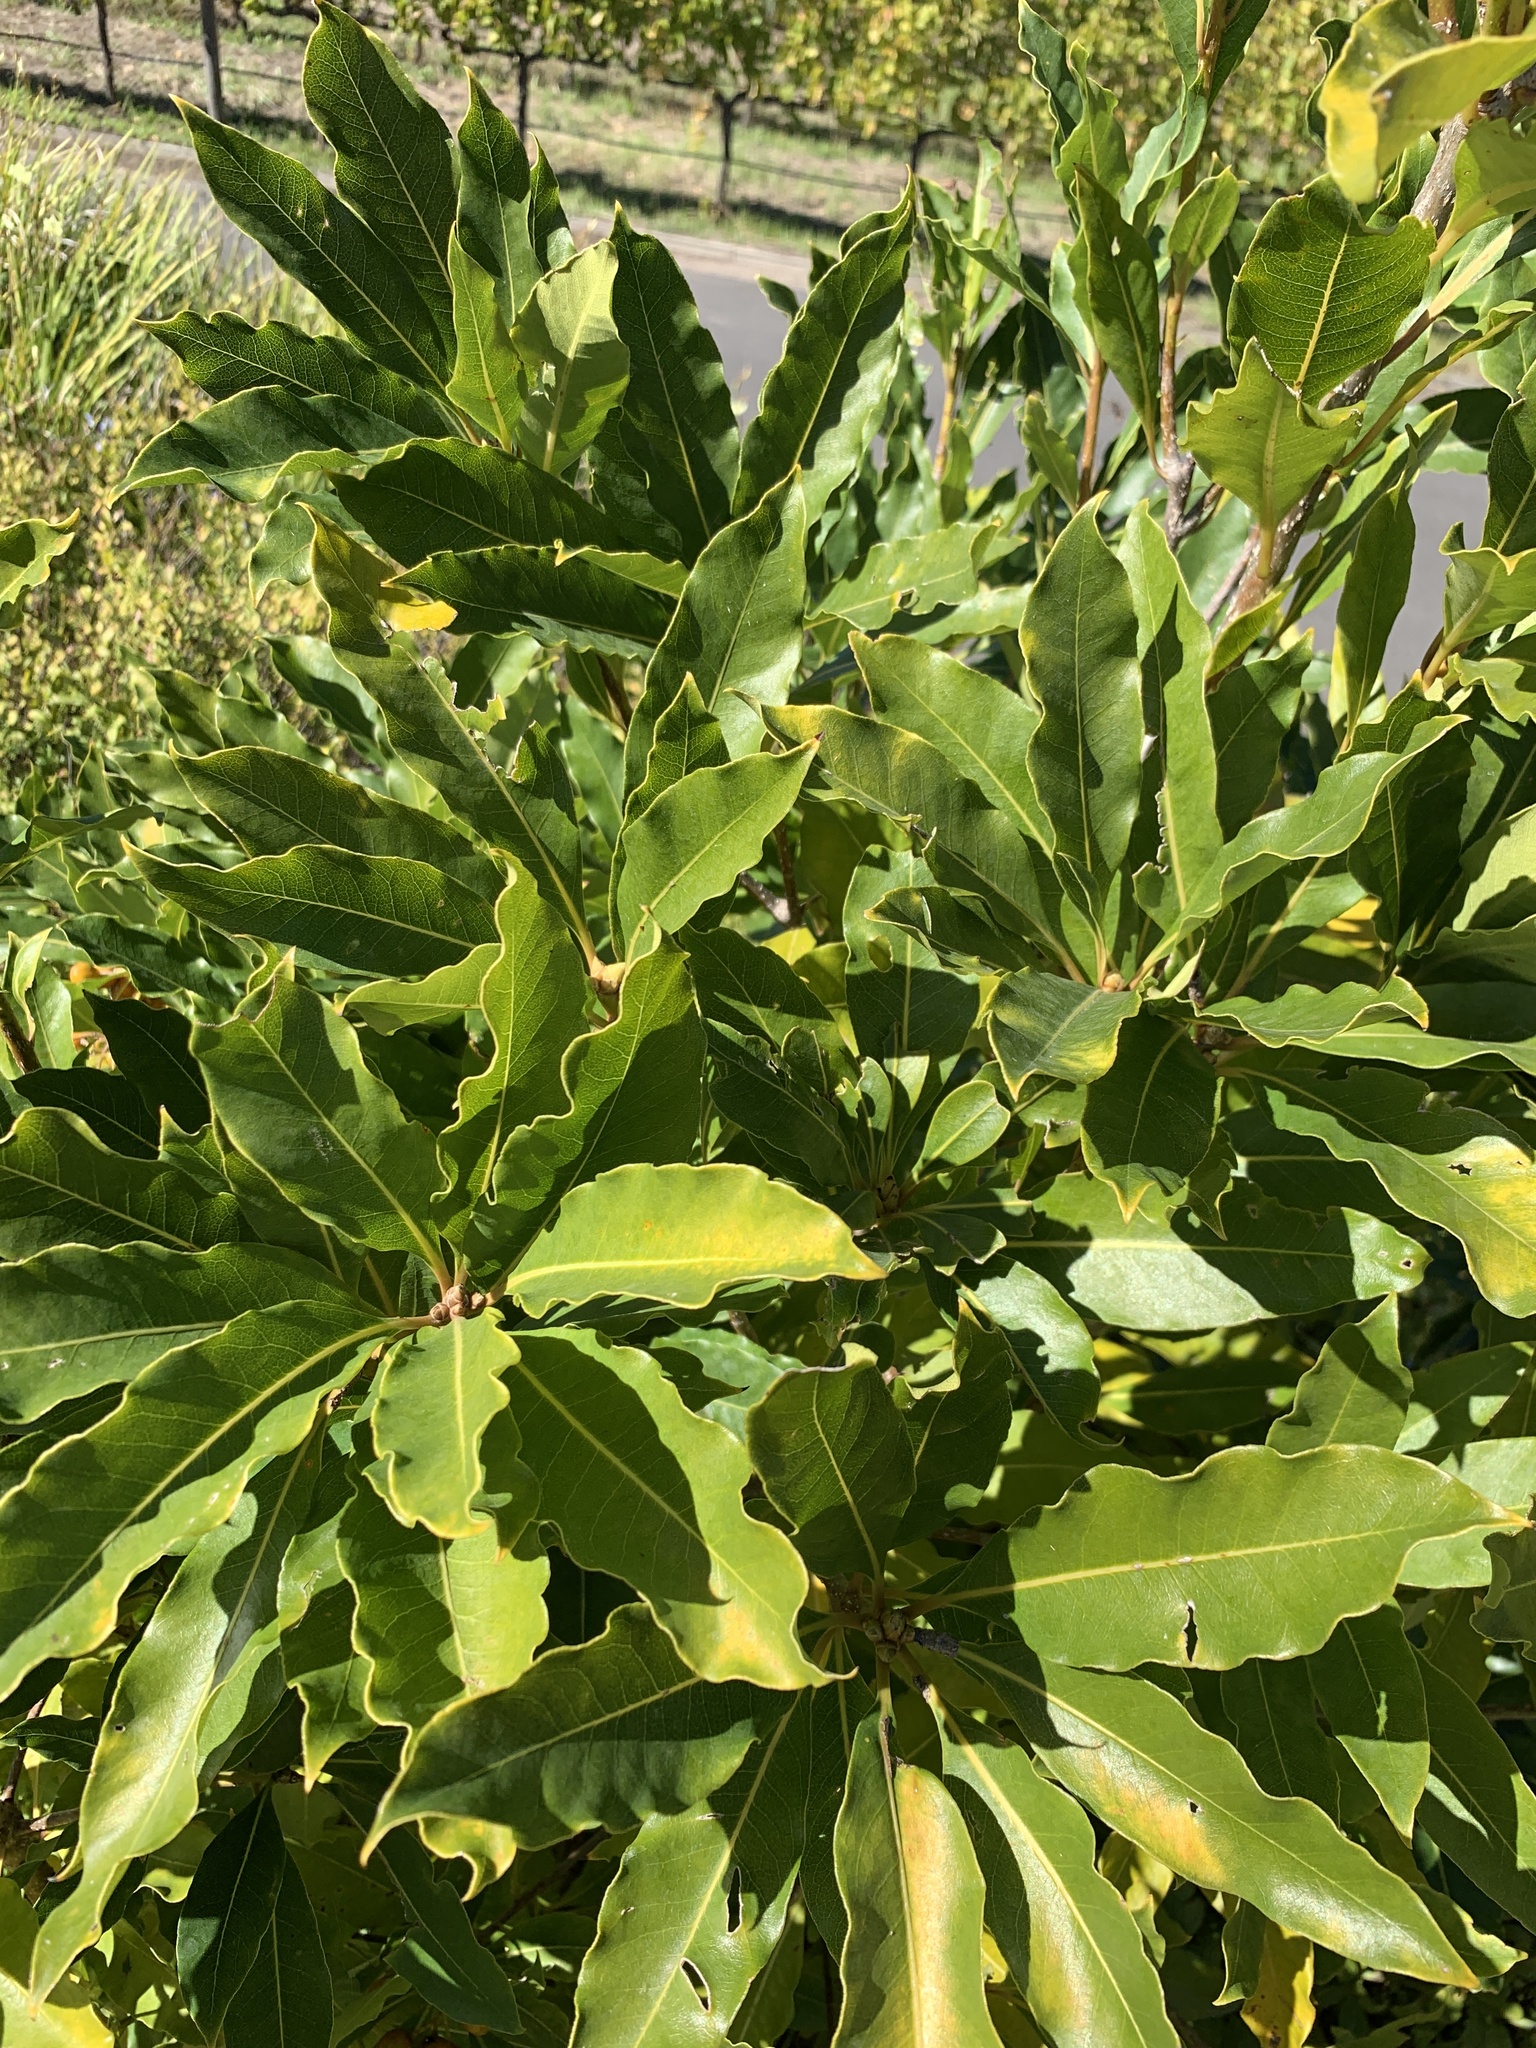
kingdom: Plantae
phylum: Tracheophyta
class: Magnoliopsida
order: Apiales
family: Pittosporaceae
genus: Pittosporum
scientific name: Pittosporum undulatum
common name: Australian cheesewood
